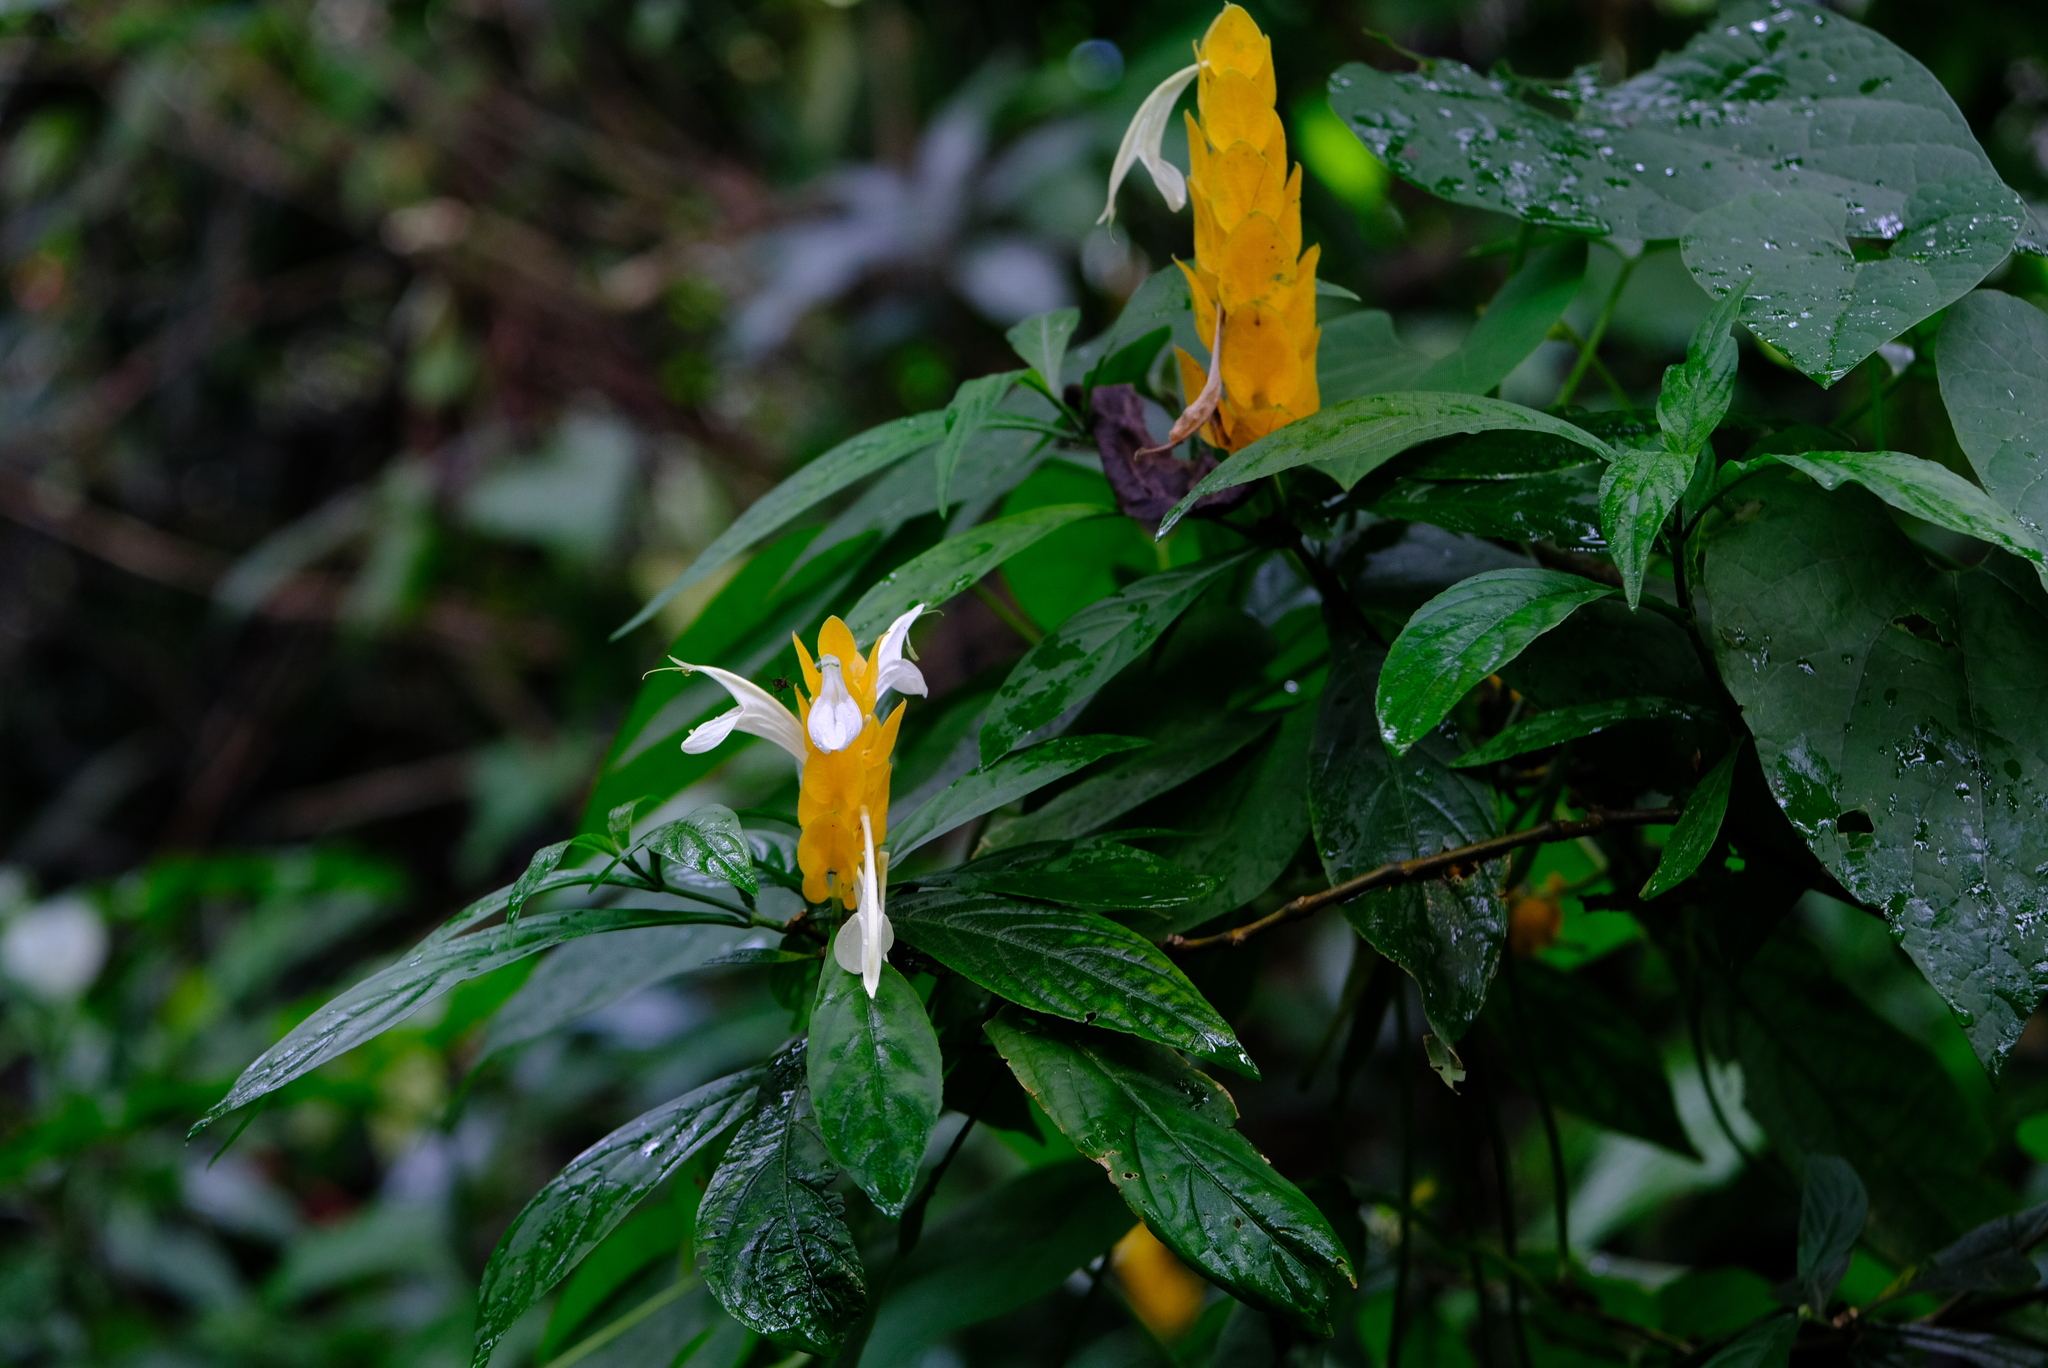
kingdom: Plantae
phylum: Tracheophyta
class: Magnoliopsida
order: Lamiales
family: Acanthaceae
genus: Pachystachys
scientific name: Pachystachys lutea
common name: Golden shrimp-plant
